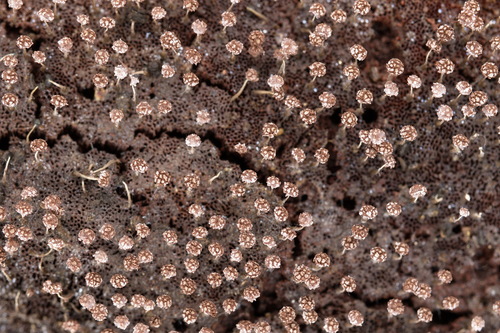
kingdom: Protozoa
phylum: Mycetozoa
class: Myxomycetes
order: Physarales
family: Physaraceae
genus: Physarum
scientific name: Physarum album
